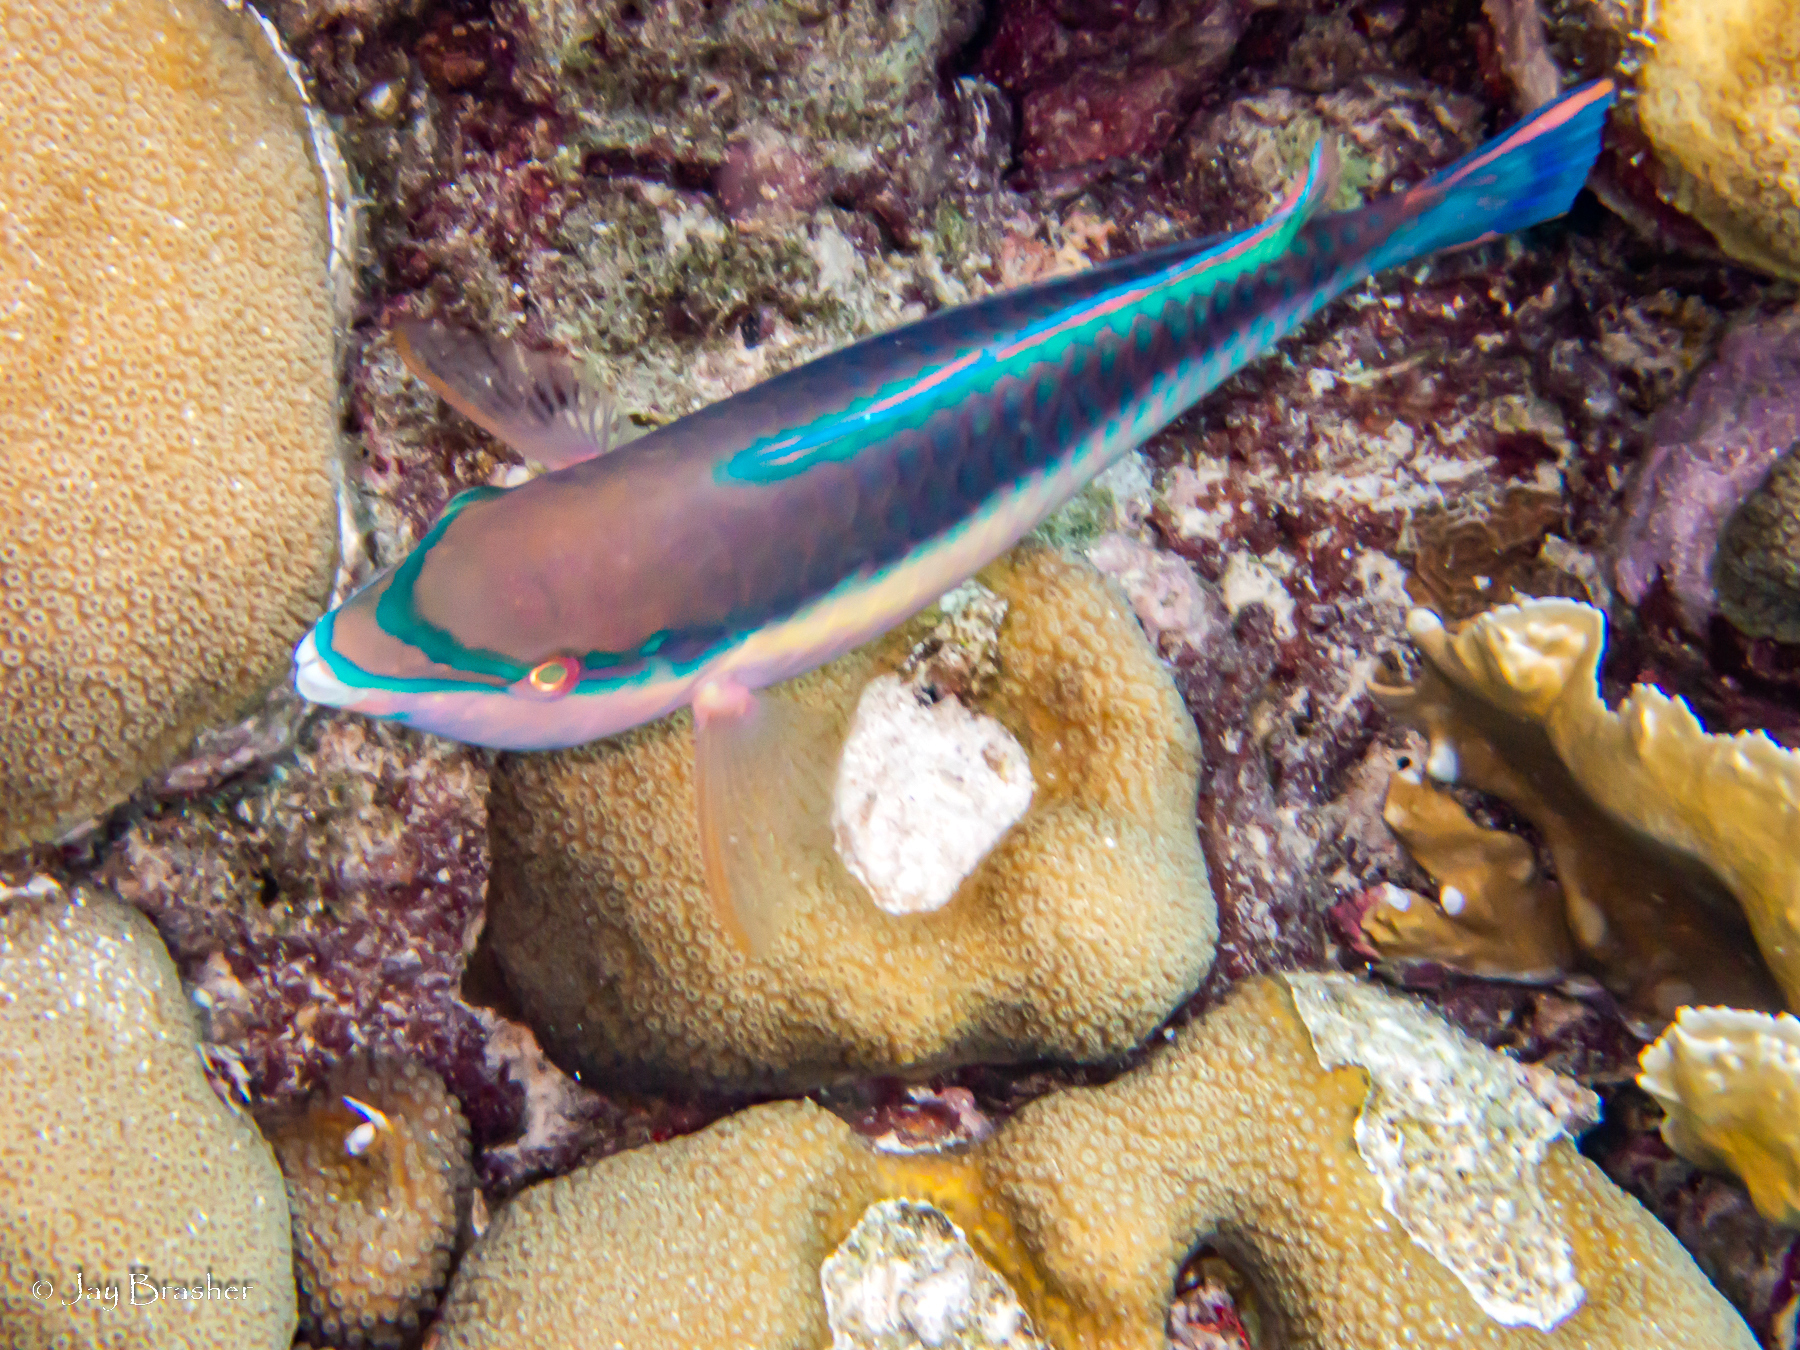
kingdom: Animalia
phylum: Chordata
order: Perciformes
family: Scaridae
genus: Scarus
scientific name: Scarus taeniopterus
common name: Princess parrotfish
